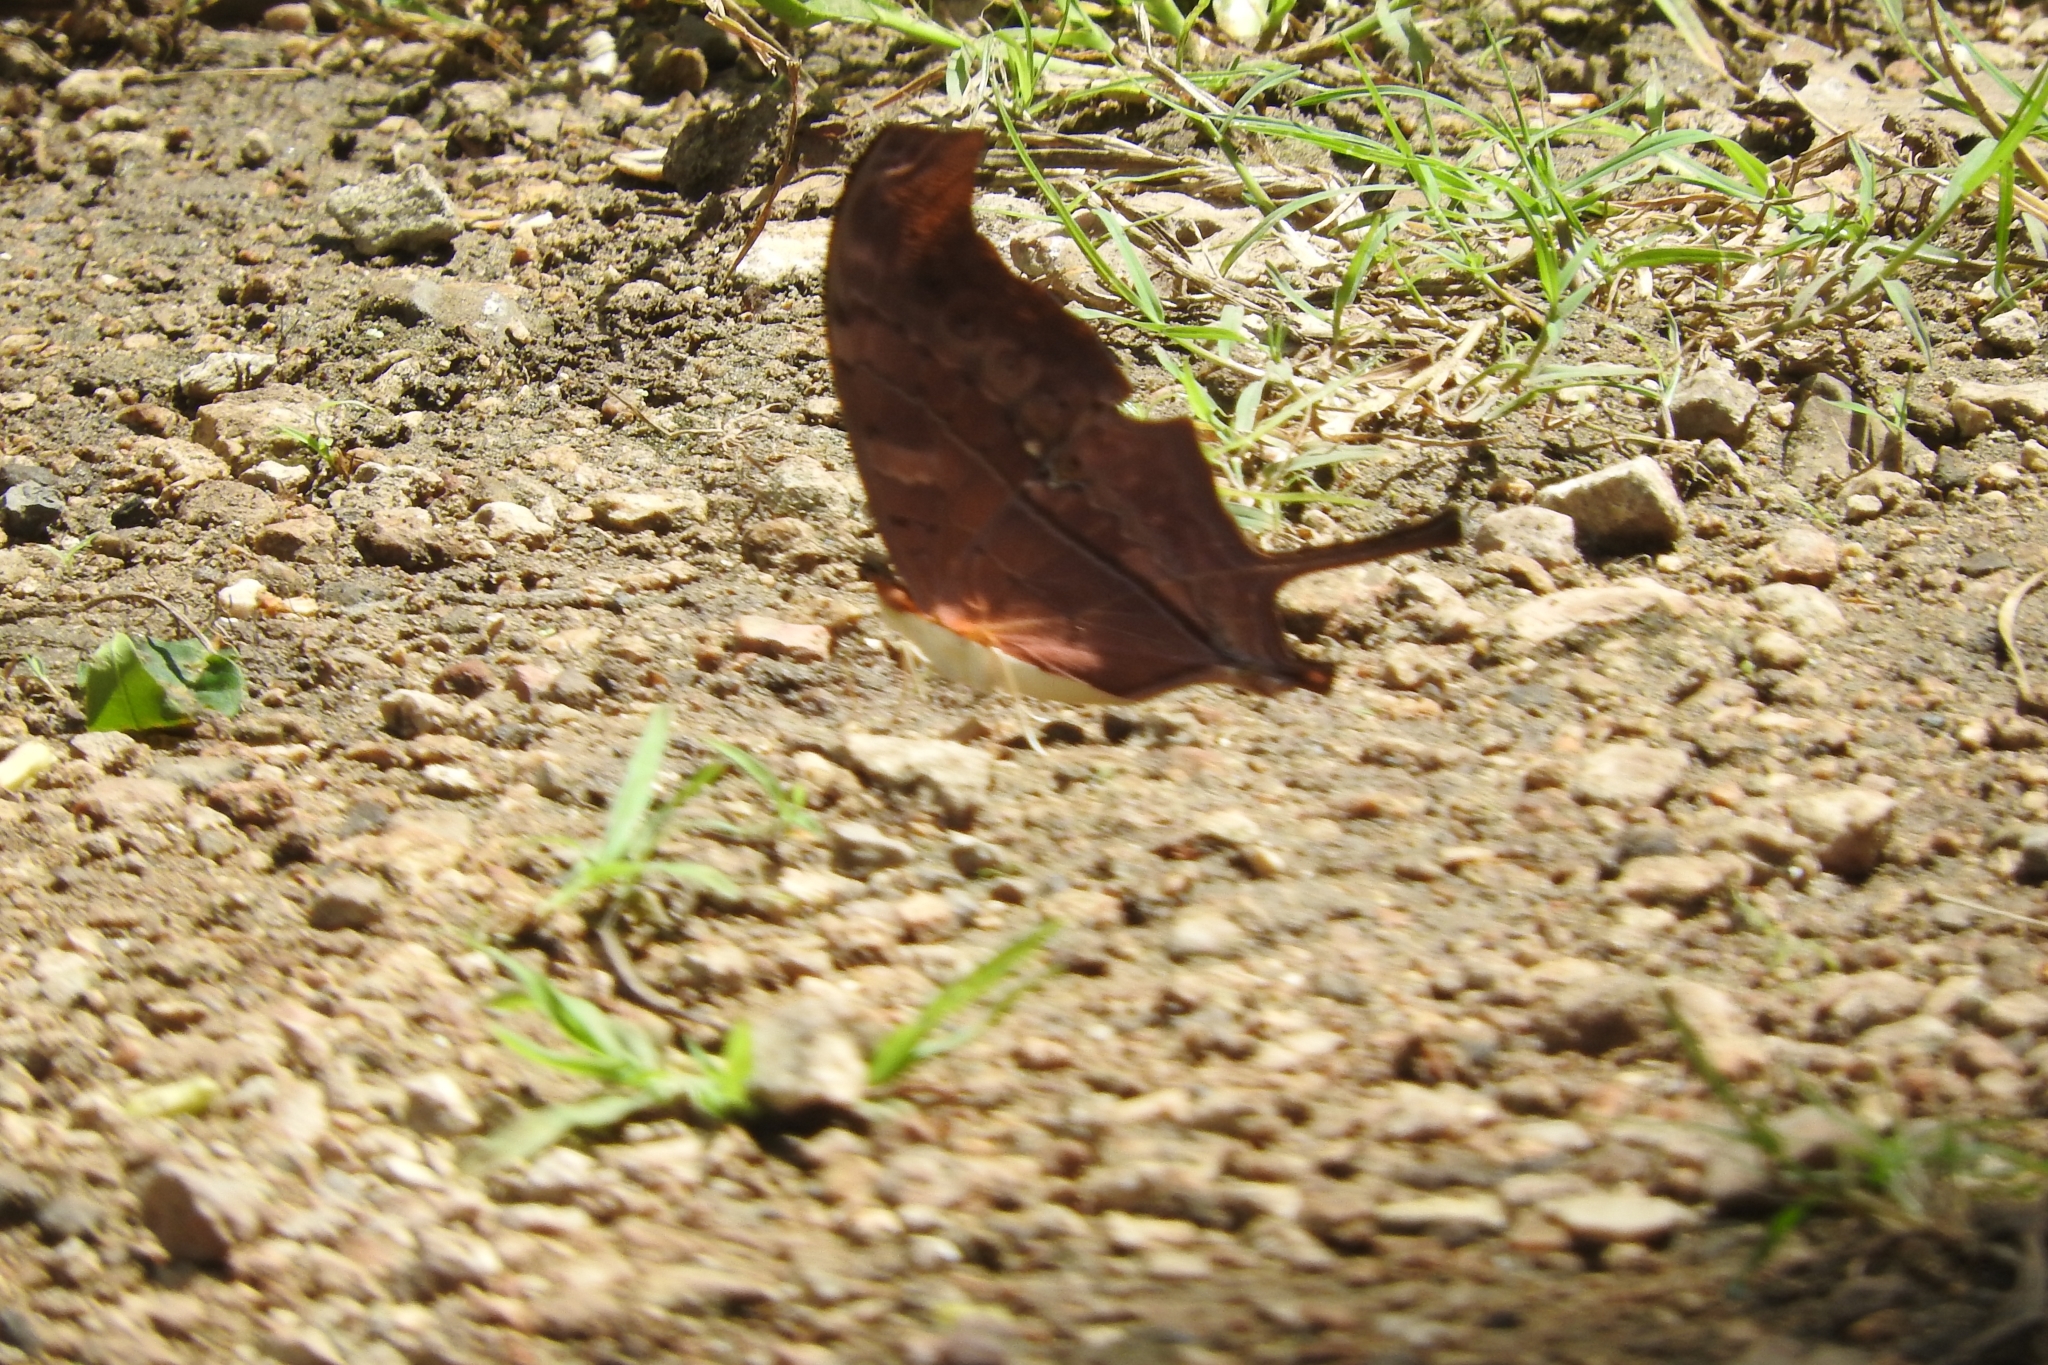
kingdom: Animalia
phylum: Arthropoda
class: Insecta
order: Lepidoptera
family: Nymphalidae
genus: Marpesia
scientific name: Marpesia petreus
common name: Red dagger wing
